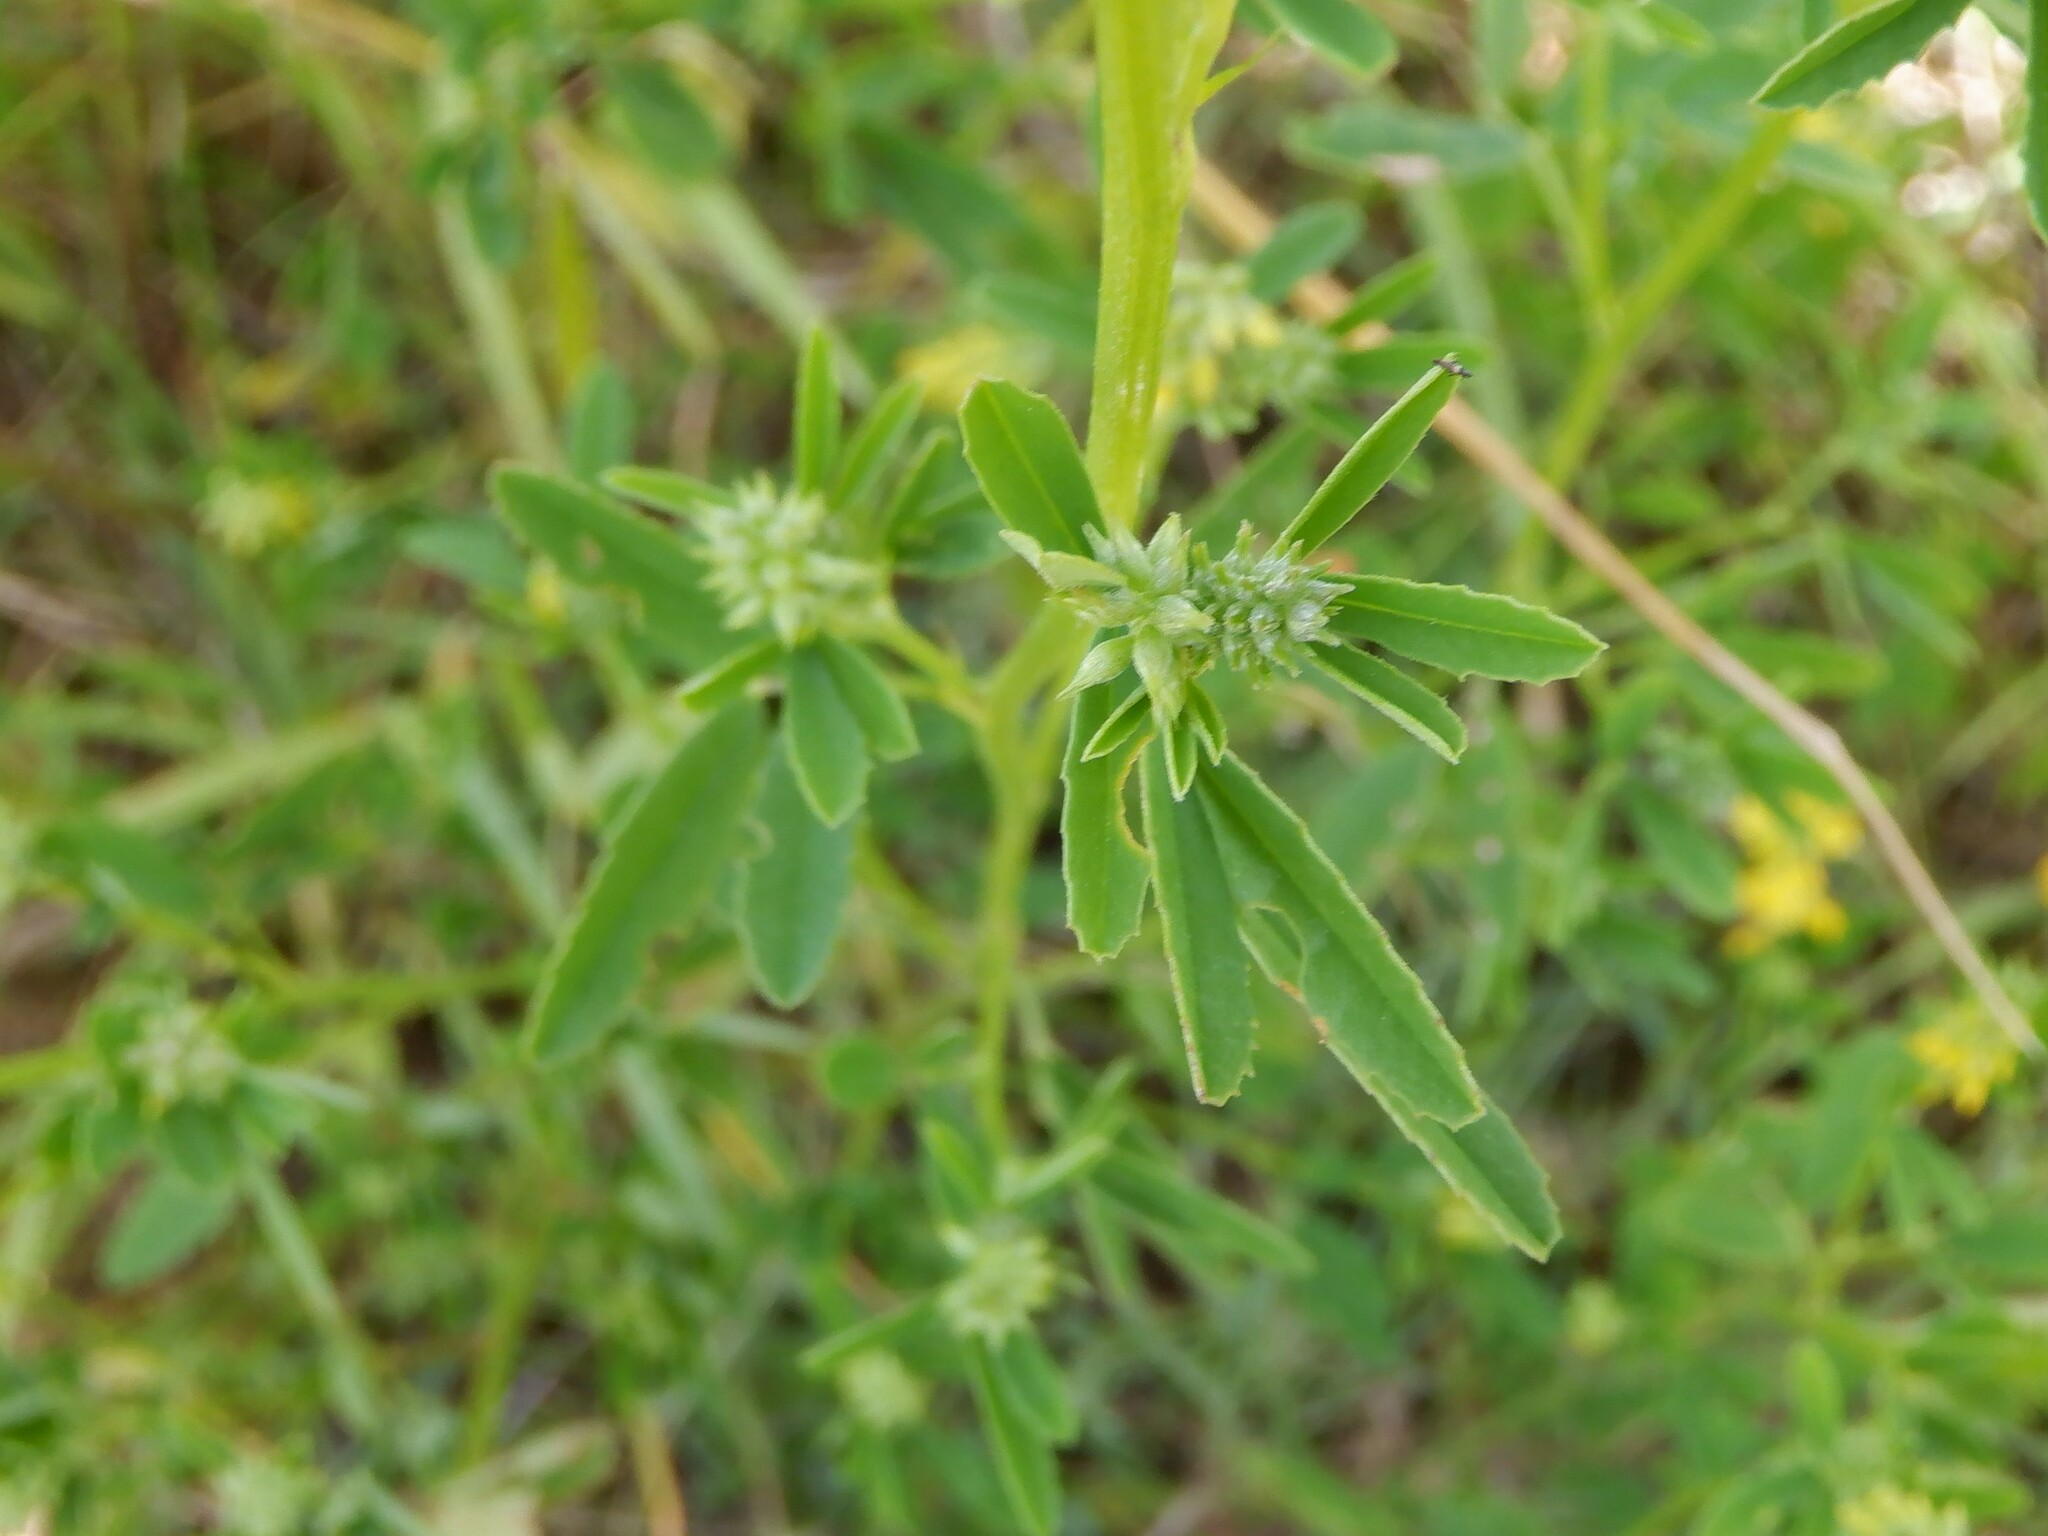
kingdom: Plantae
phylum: Tracheophyta
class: Magnoliopsida
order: Fabales
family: Fabaceae
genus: Melilotus
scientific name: Melilotus officinalis
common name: Sweetclover
